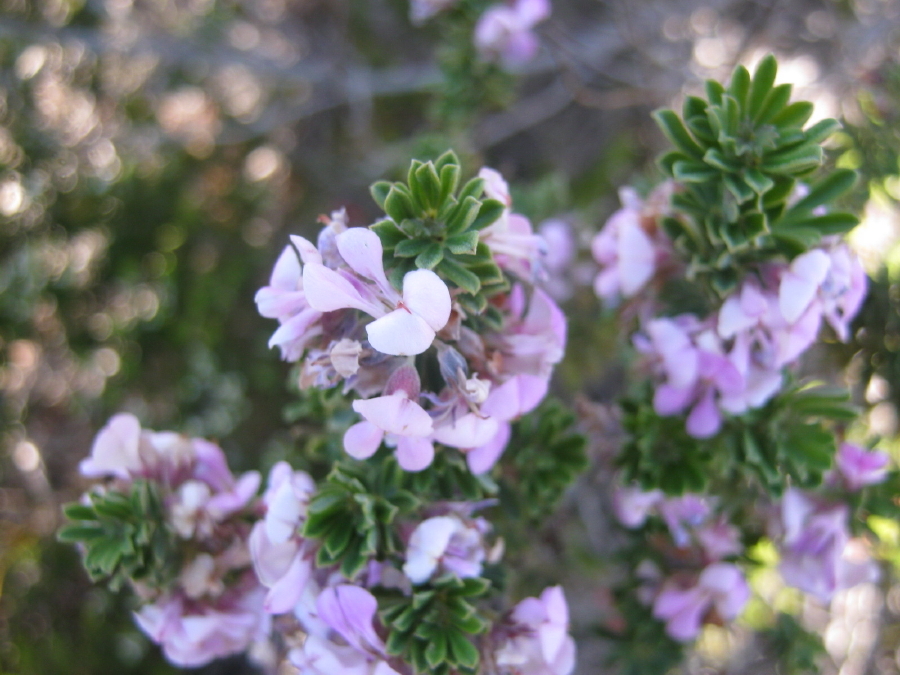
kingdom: Plantae
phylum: Tracheophyta
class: Magnoliopsida
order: Fabales
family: Fabaceae
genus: Indigofera
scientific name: Indigofera flabellata
